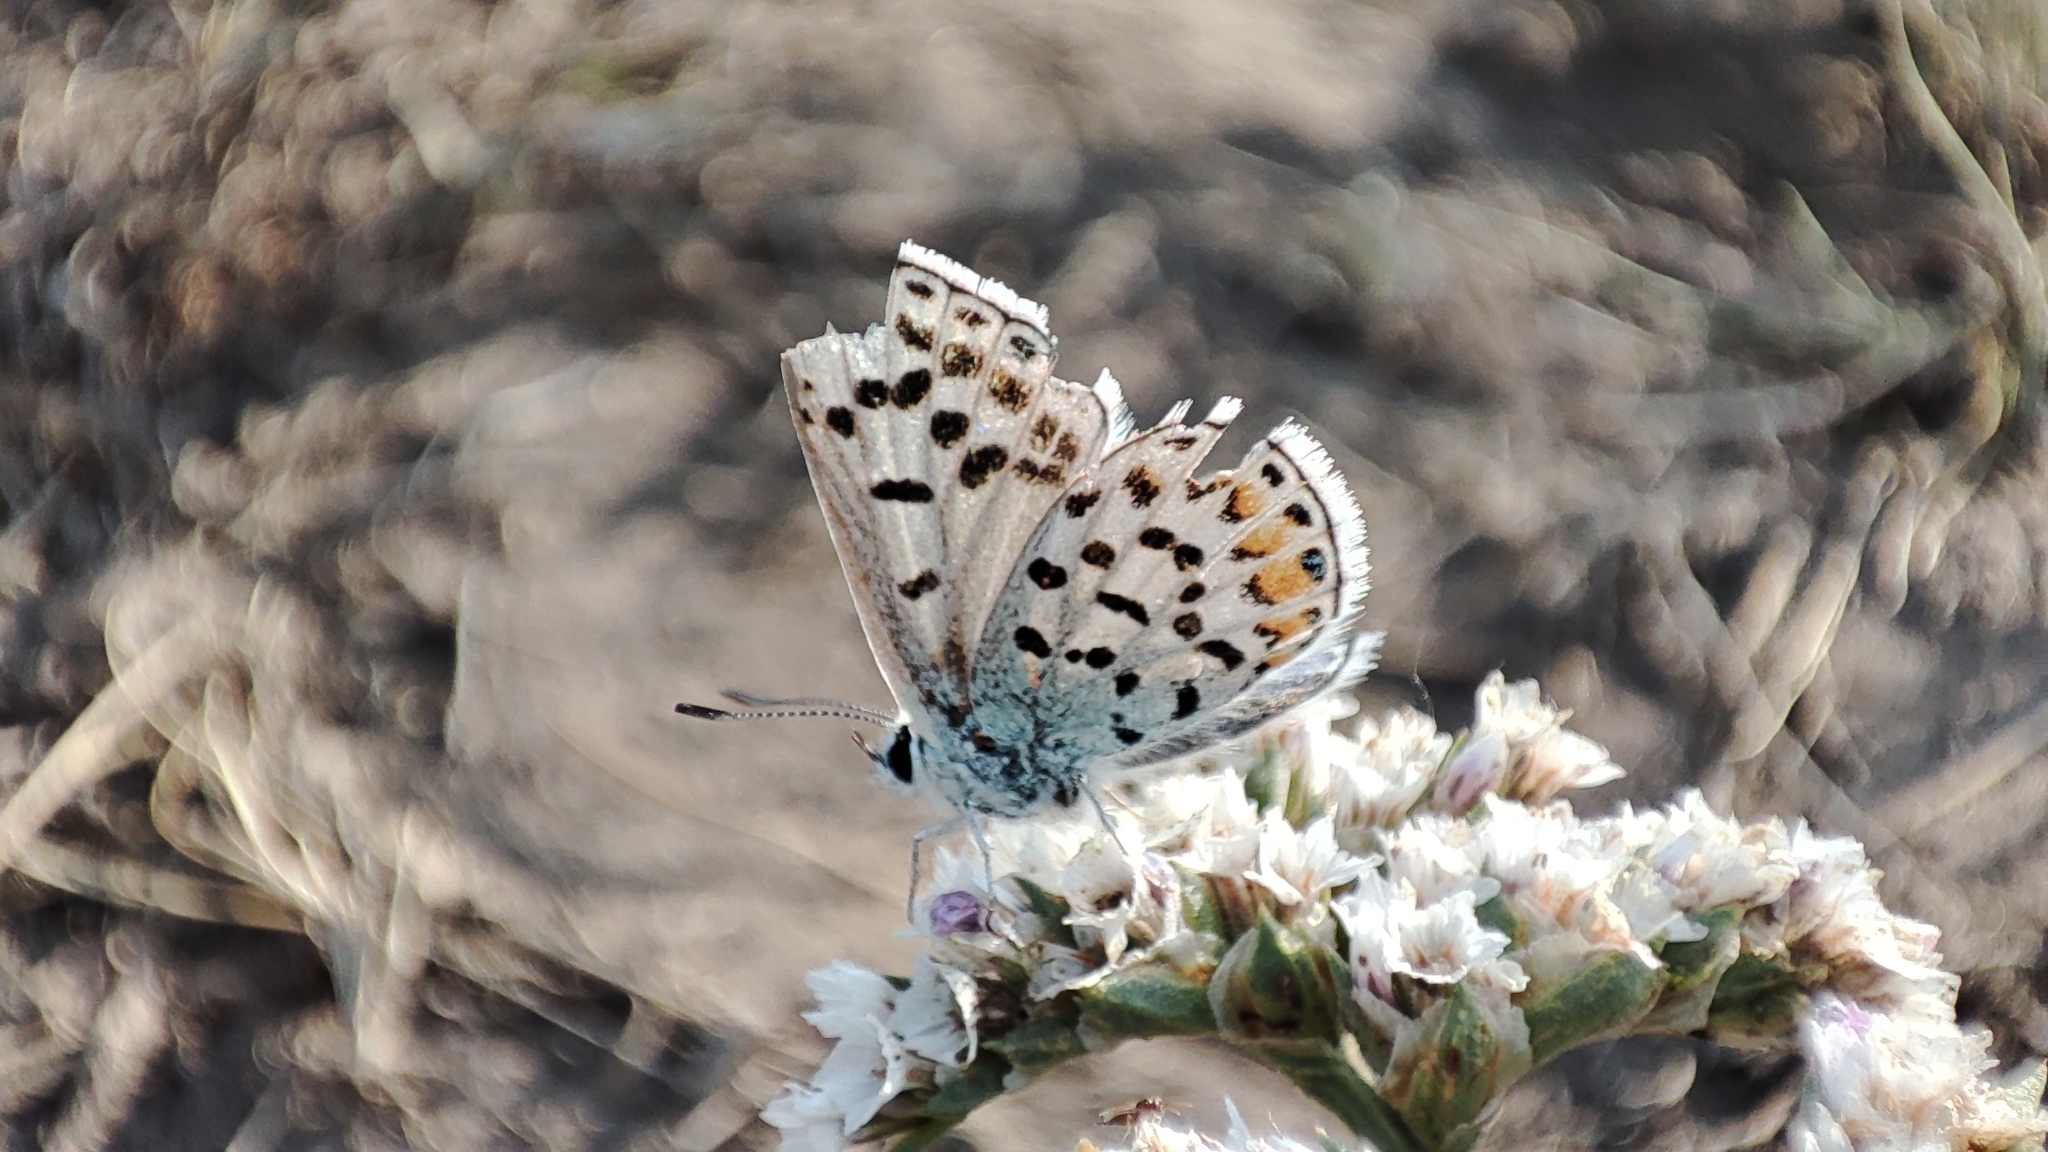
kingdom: Animalia
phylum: Arthropoda
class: Insecta
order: Lepidoptera
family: Lycaenidae
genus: Glabroculus
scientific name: Glabroculus cyane
